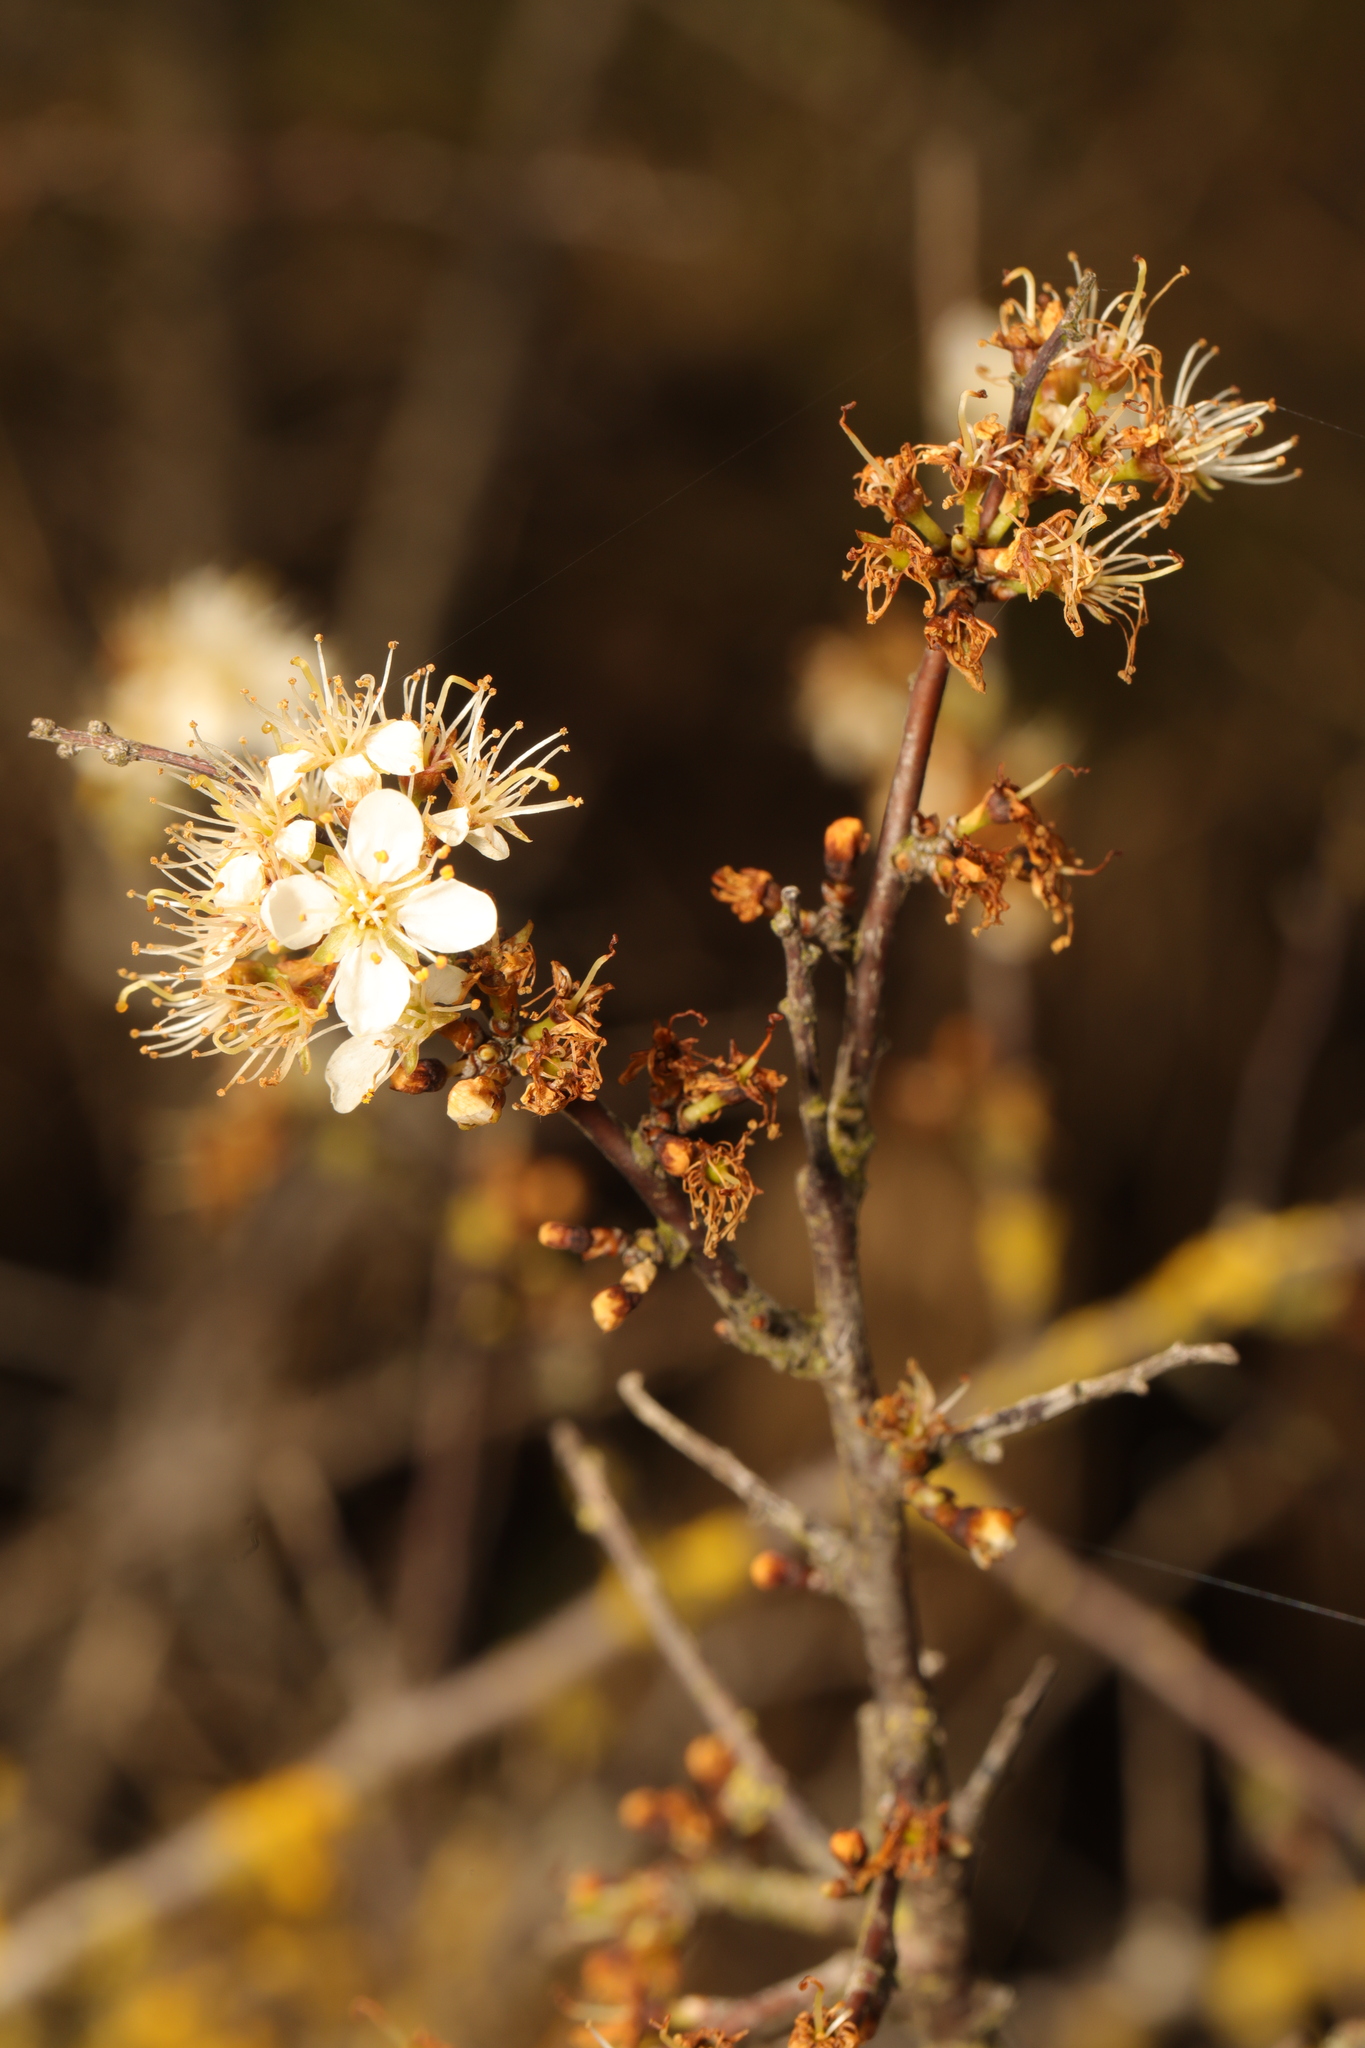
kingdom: Plantae
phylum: Tracheophyta
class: Magnoliopsida
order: Rosales
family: Rosaceae
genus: Prunus
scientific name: Prunus spinosa
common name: Blackthorn
